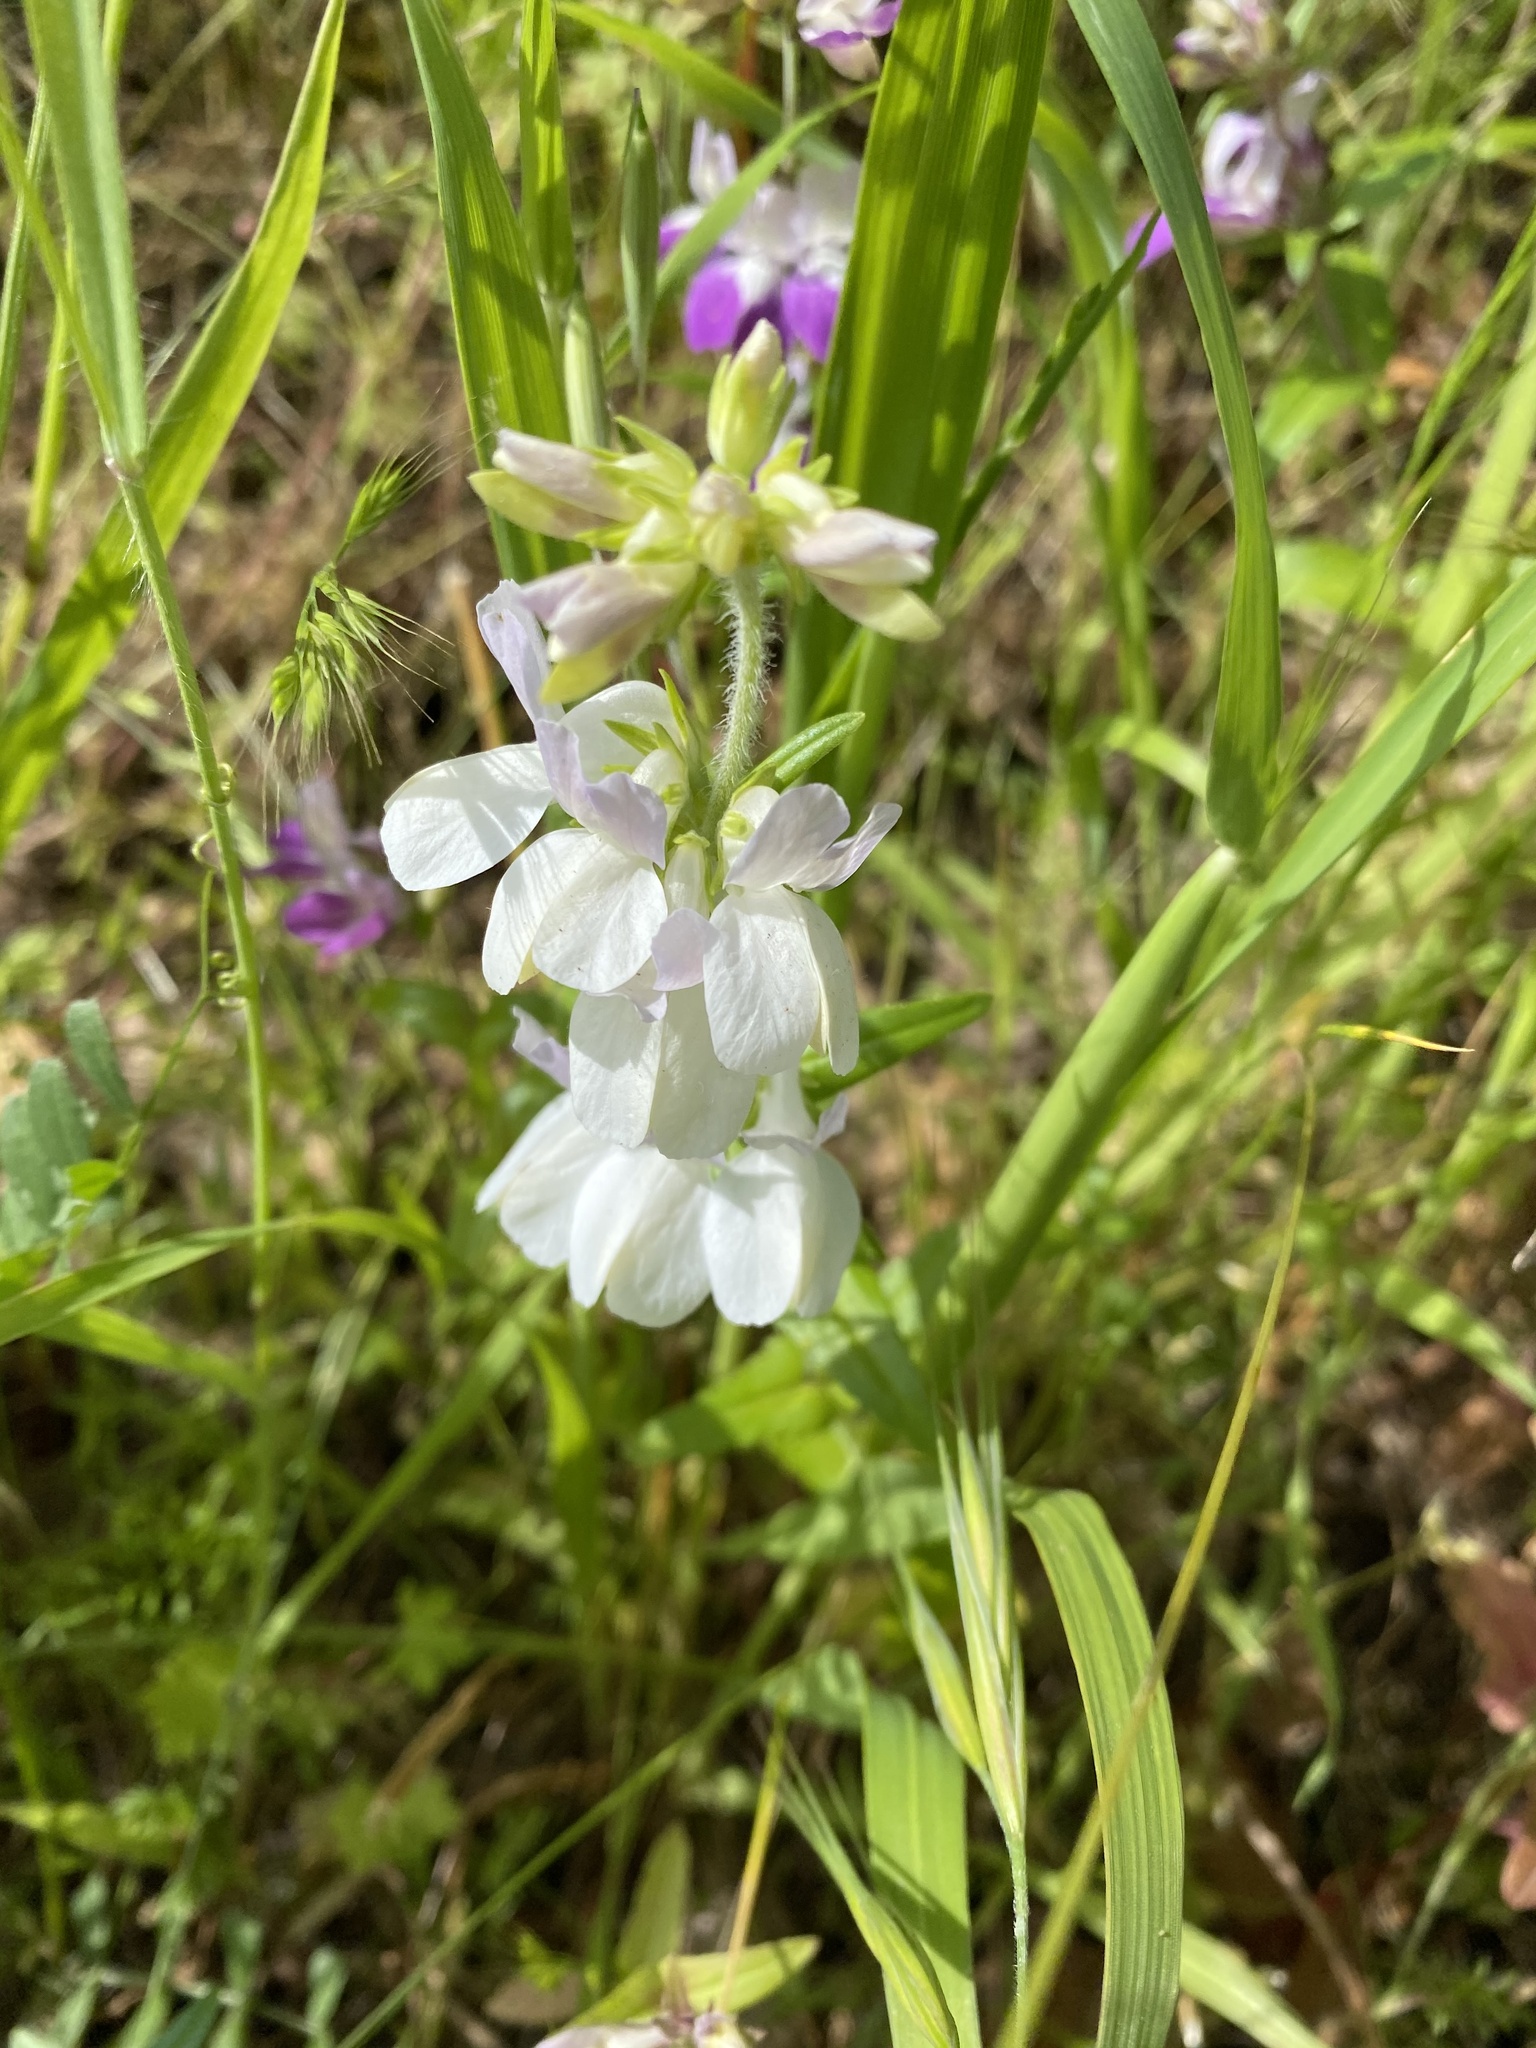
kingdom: Plantae
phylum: Tracheophyta
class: Magnoliopsida
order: Lamiales
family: Plantaginaceae
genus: Collinsia
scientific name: Collinsia heterophylla
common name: Chinese-houses
